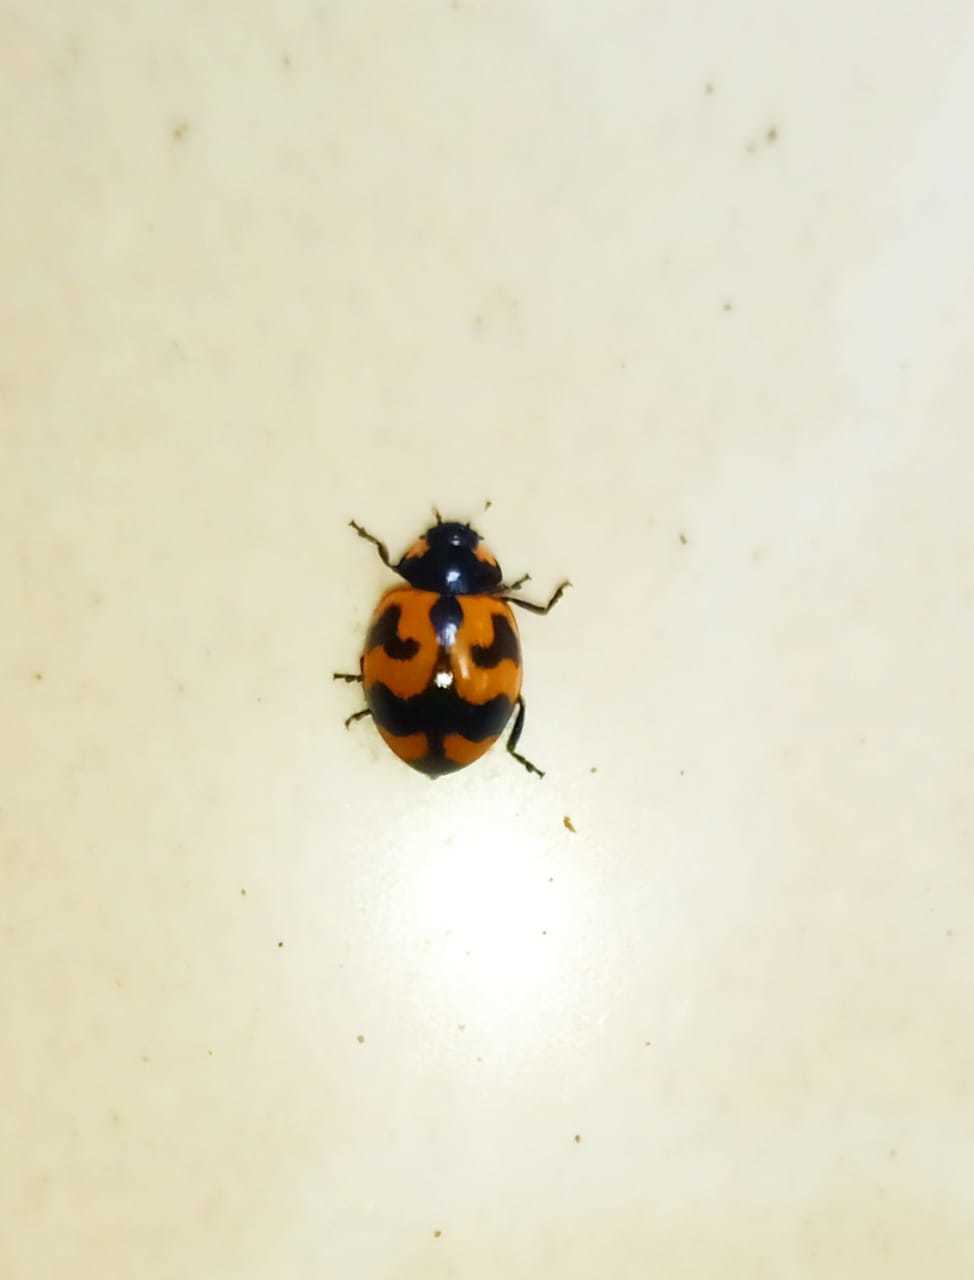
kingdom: Animalia
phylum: Arthropoda
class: Insecta
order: Coleoptera
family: Coccinellidae
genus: Coccinella
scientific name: Coccinella transversalis
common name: Transverse lady beetle
